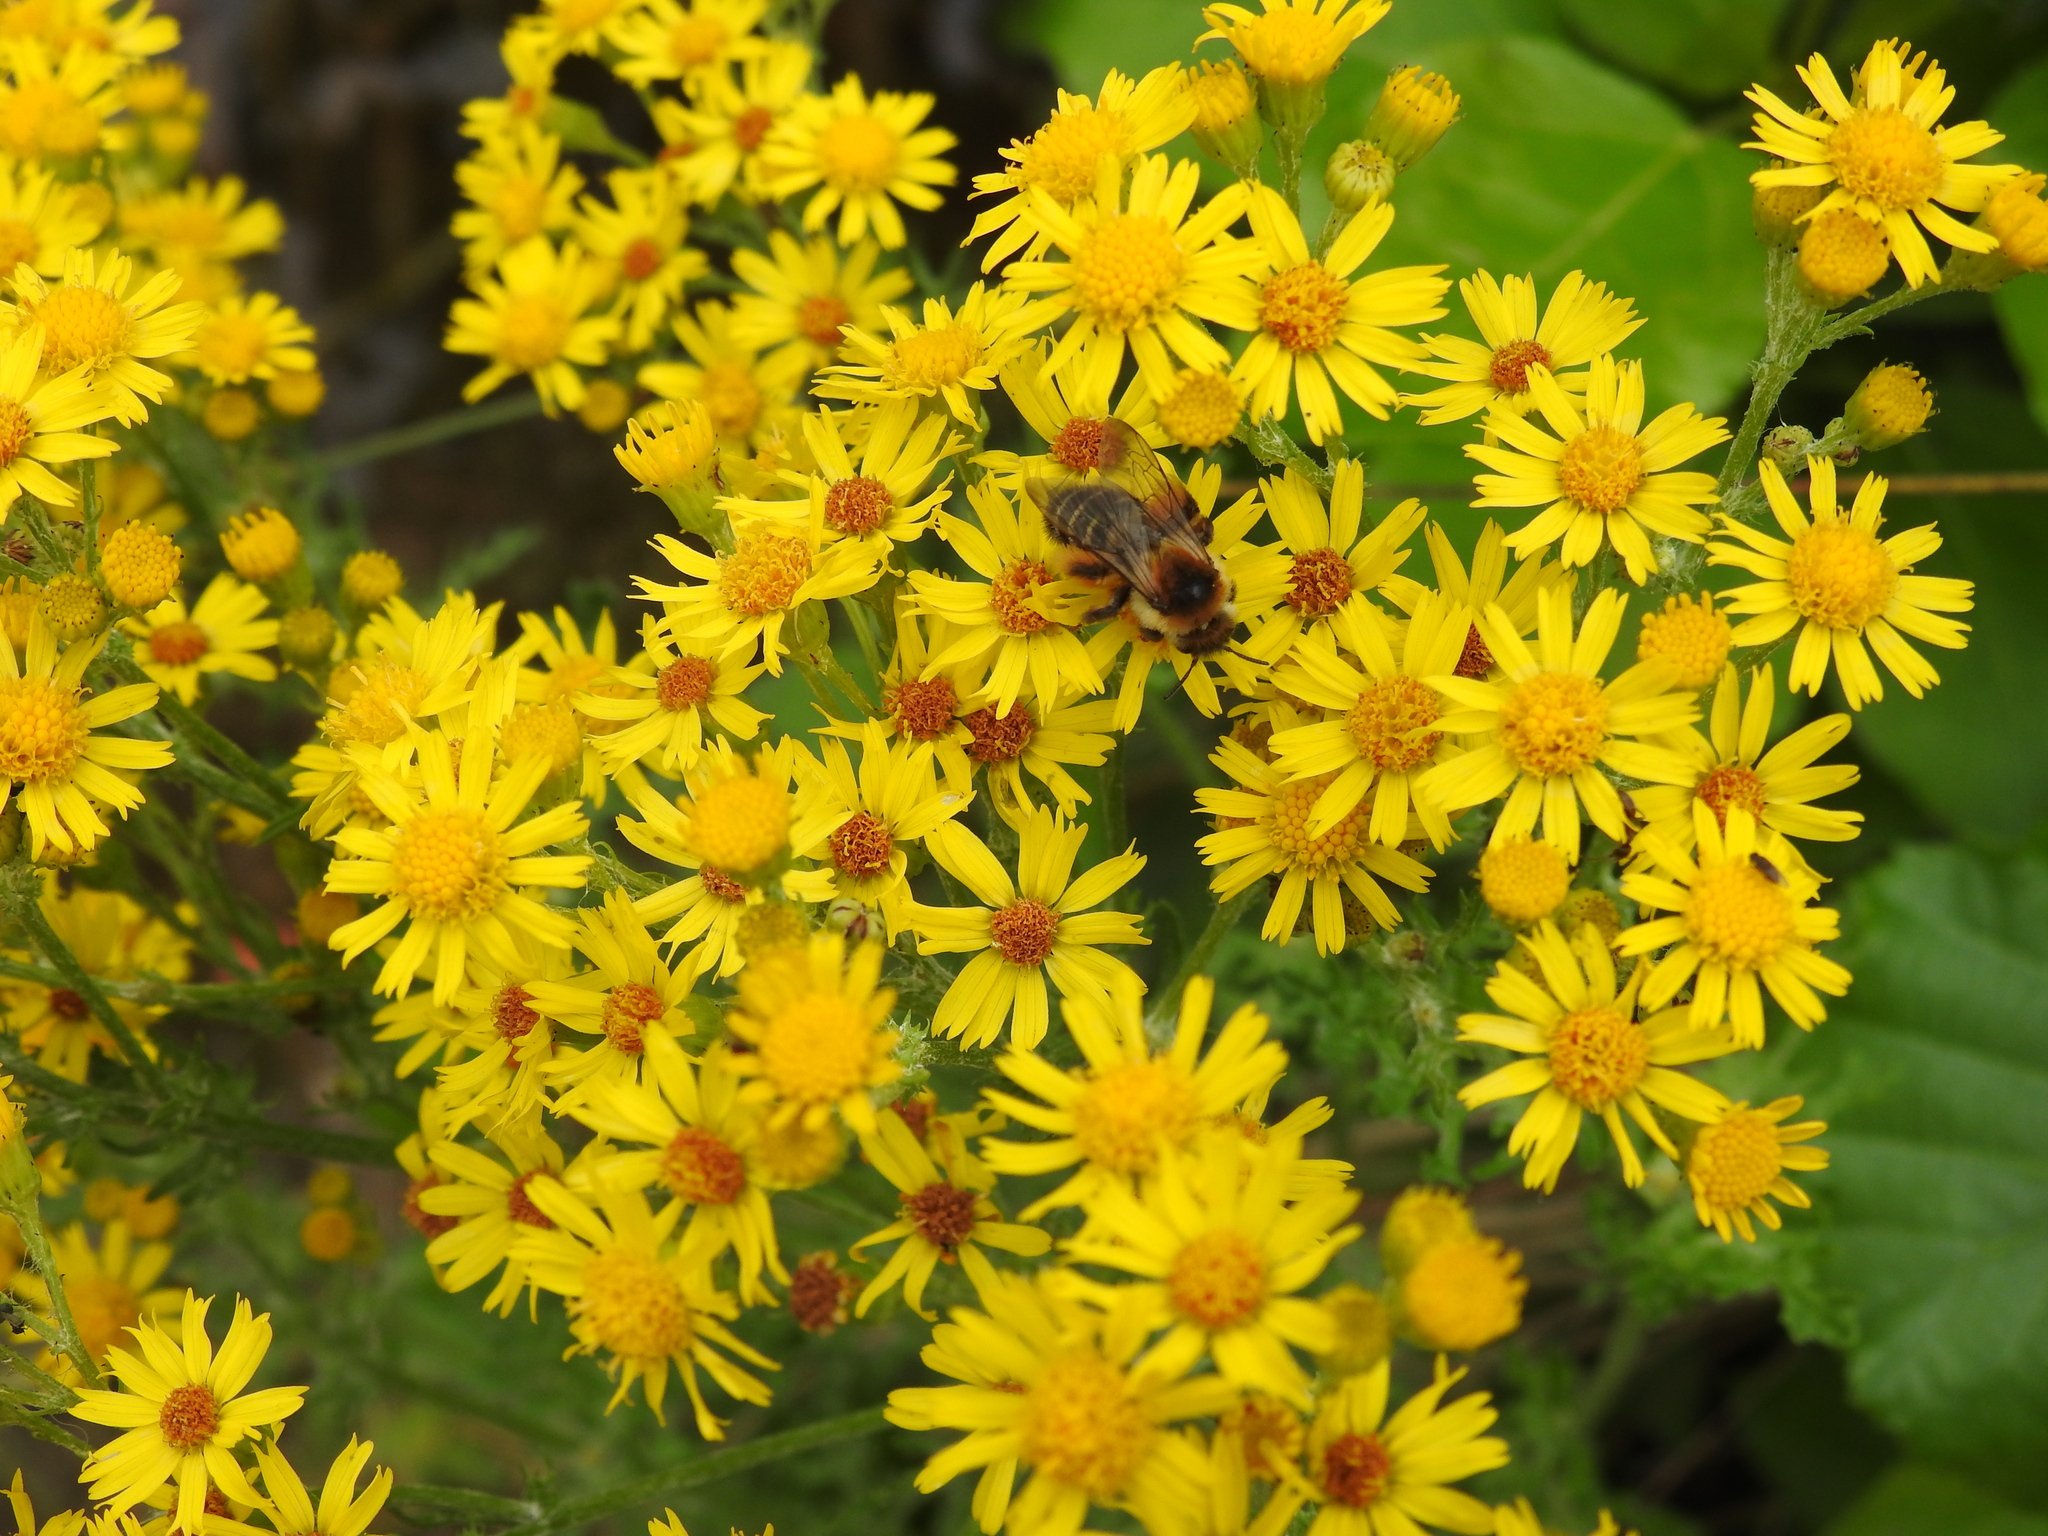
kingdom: Animalia
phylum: Arthropoda
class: Insecta
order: Hymenoptera
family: Melittidae
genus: Dasypoda
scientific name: Dasypoda hirtipes
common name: Pantaloon bee
